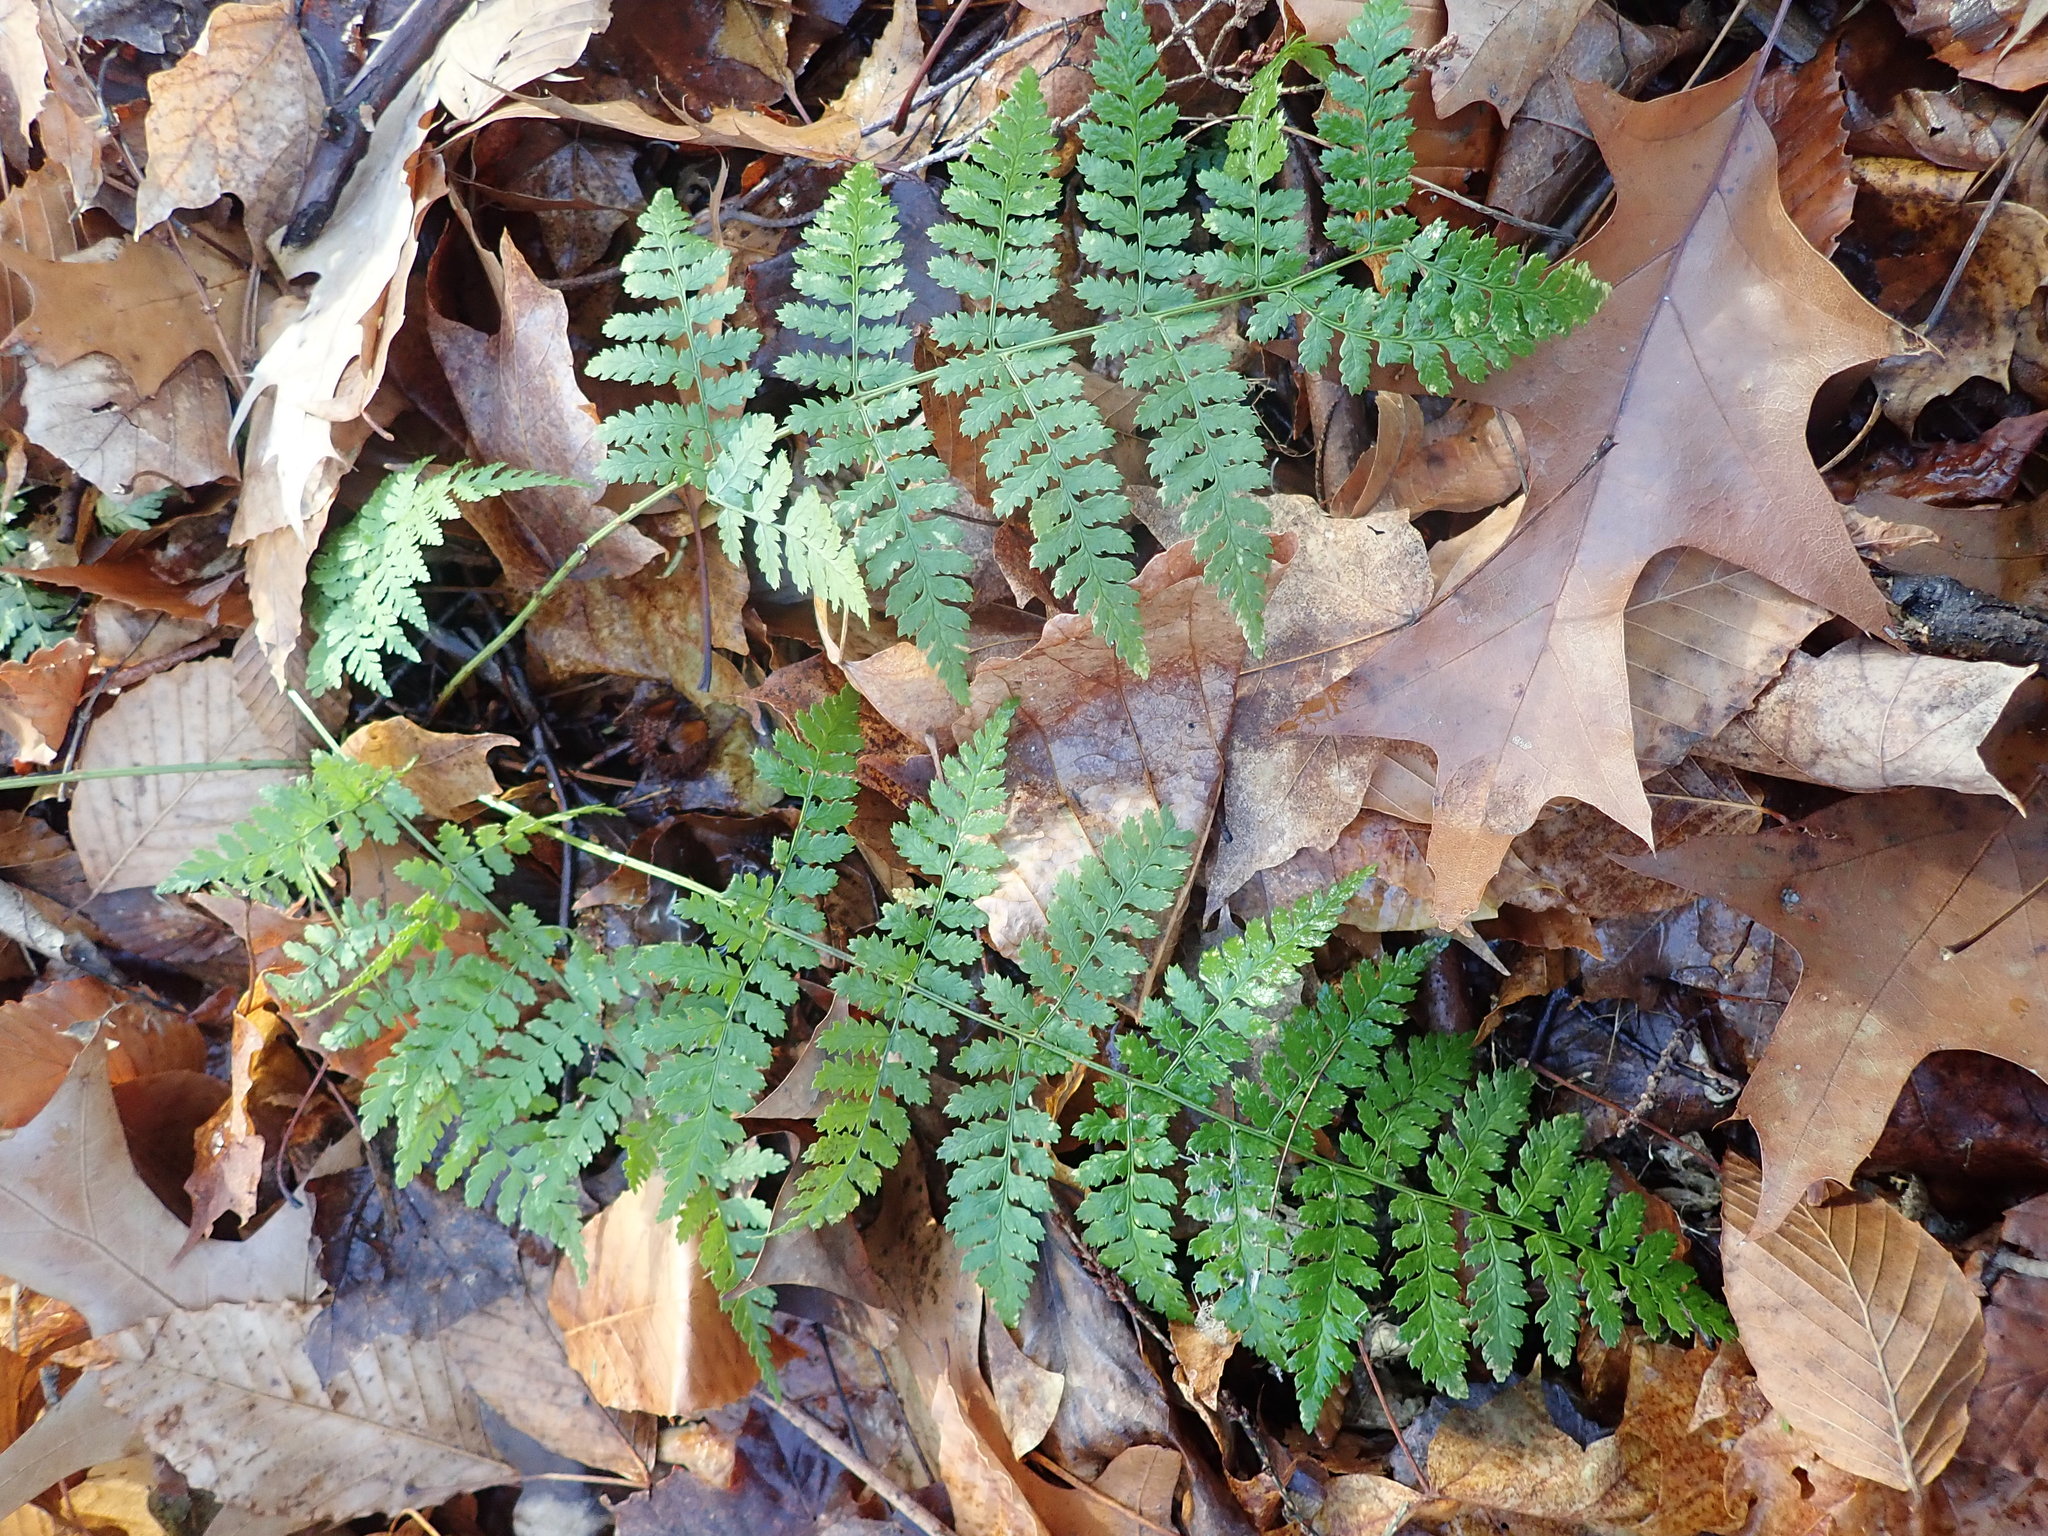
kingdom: Plantae
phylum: Tracheophyta
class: Polypodiopsida
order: Polypodiales
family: Dryopteridaceae
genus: Dryopteris
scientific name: Dryopteris intermedia
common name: Evergreen wood fern
